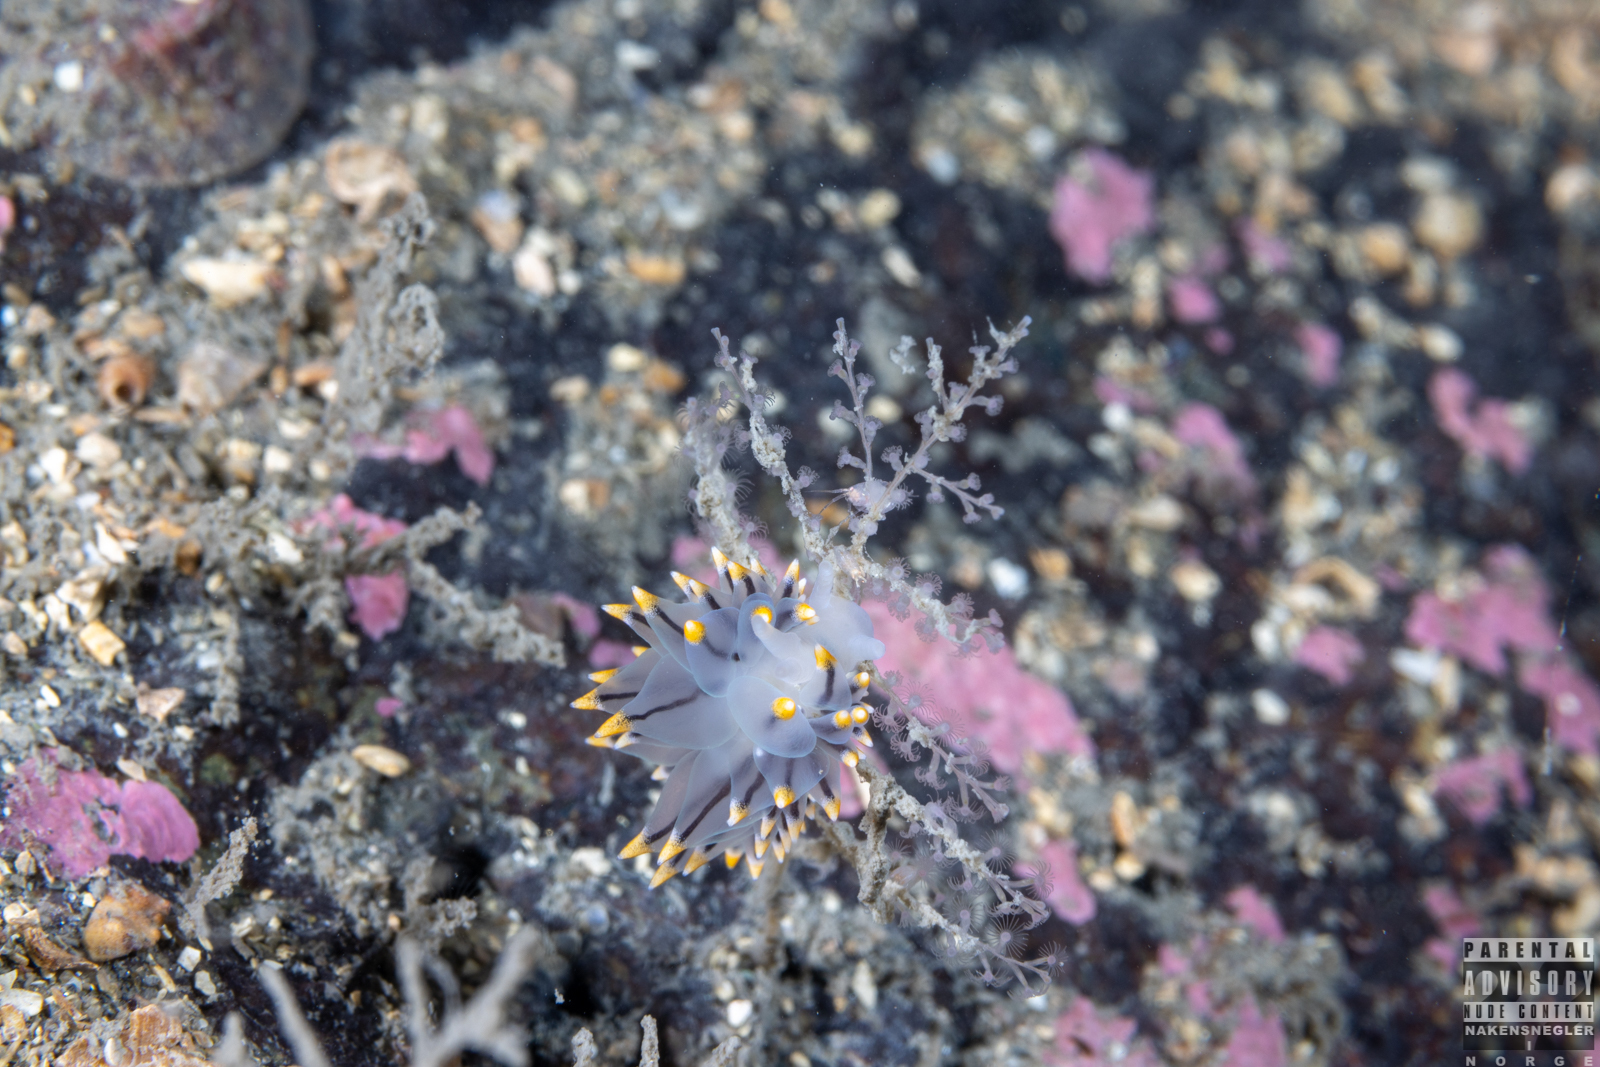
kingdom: Animalia
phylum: Mollusca
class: Gastropoda
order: Nudibranchia
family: Eubranchidae
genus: Eubranchus
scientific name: Eubranchus tricolor
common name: Painted balloon aeolis
